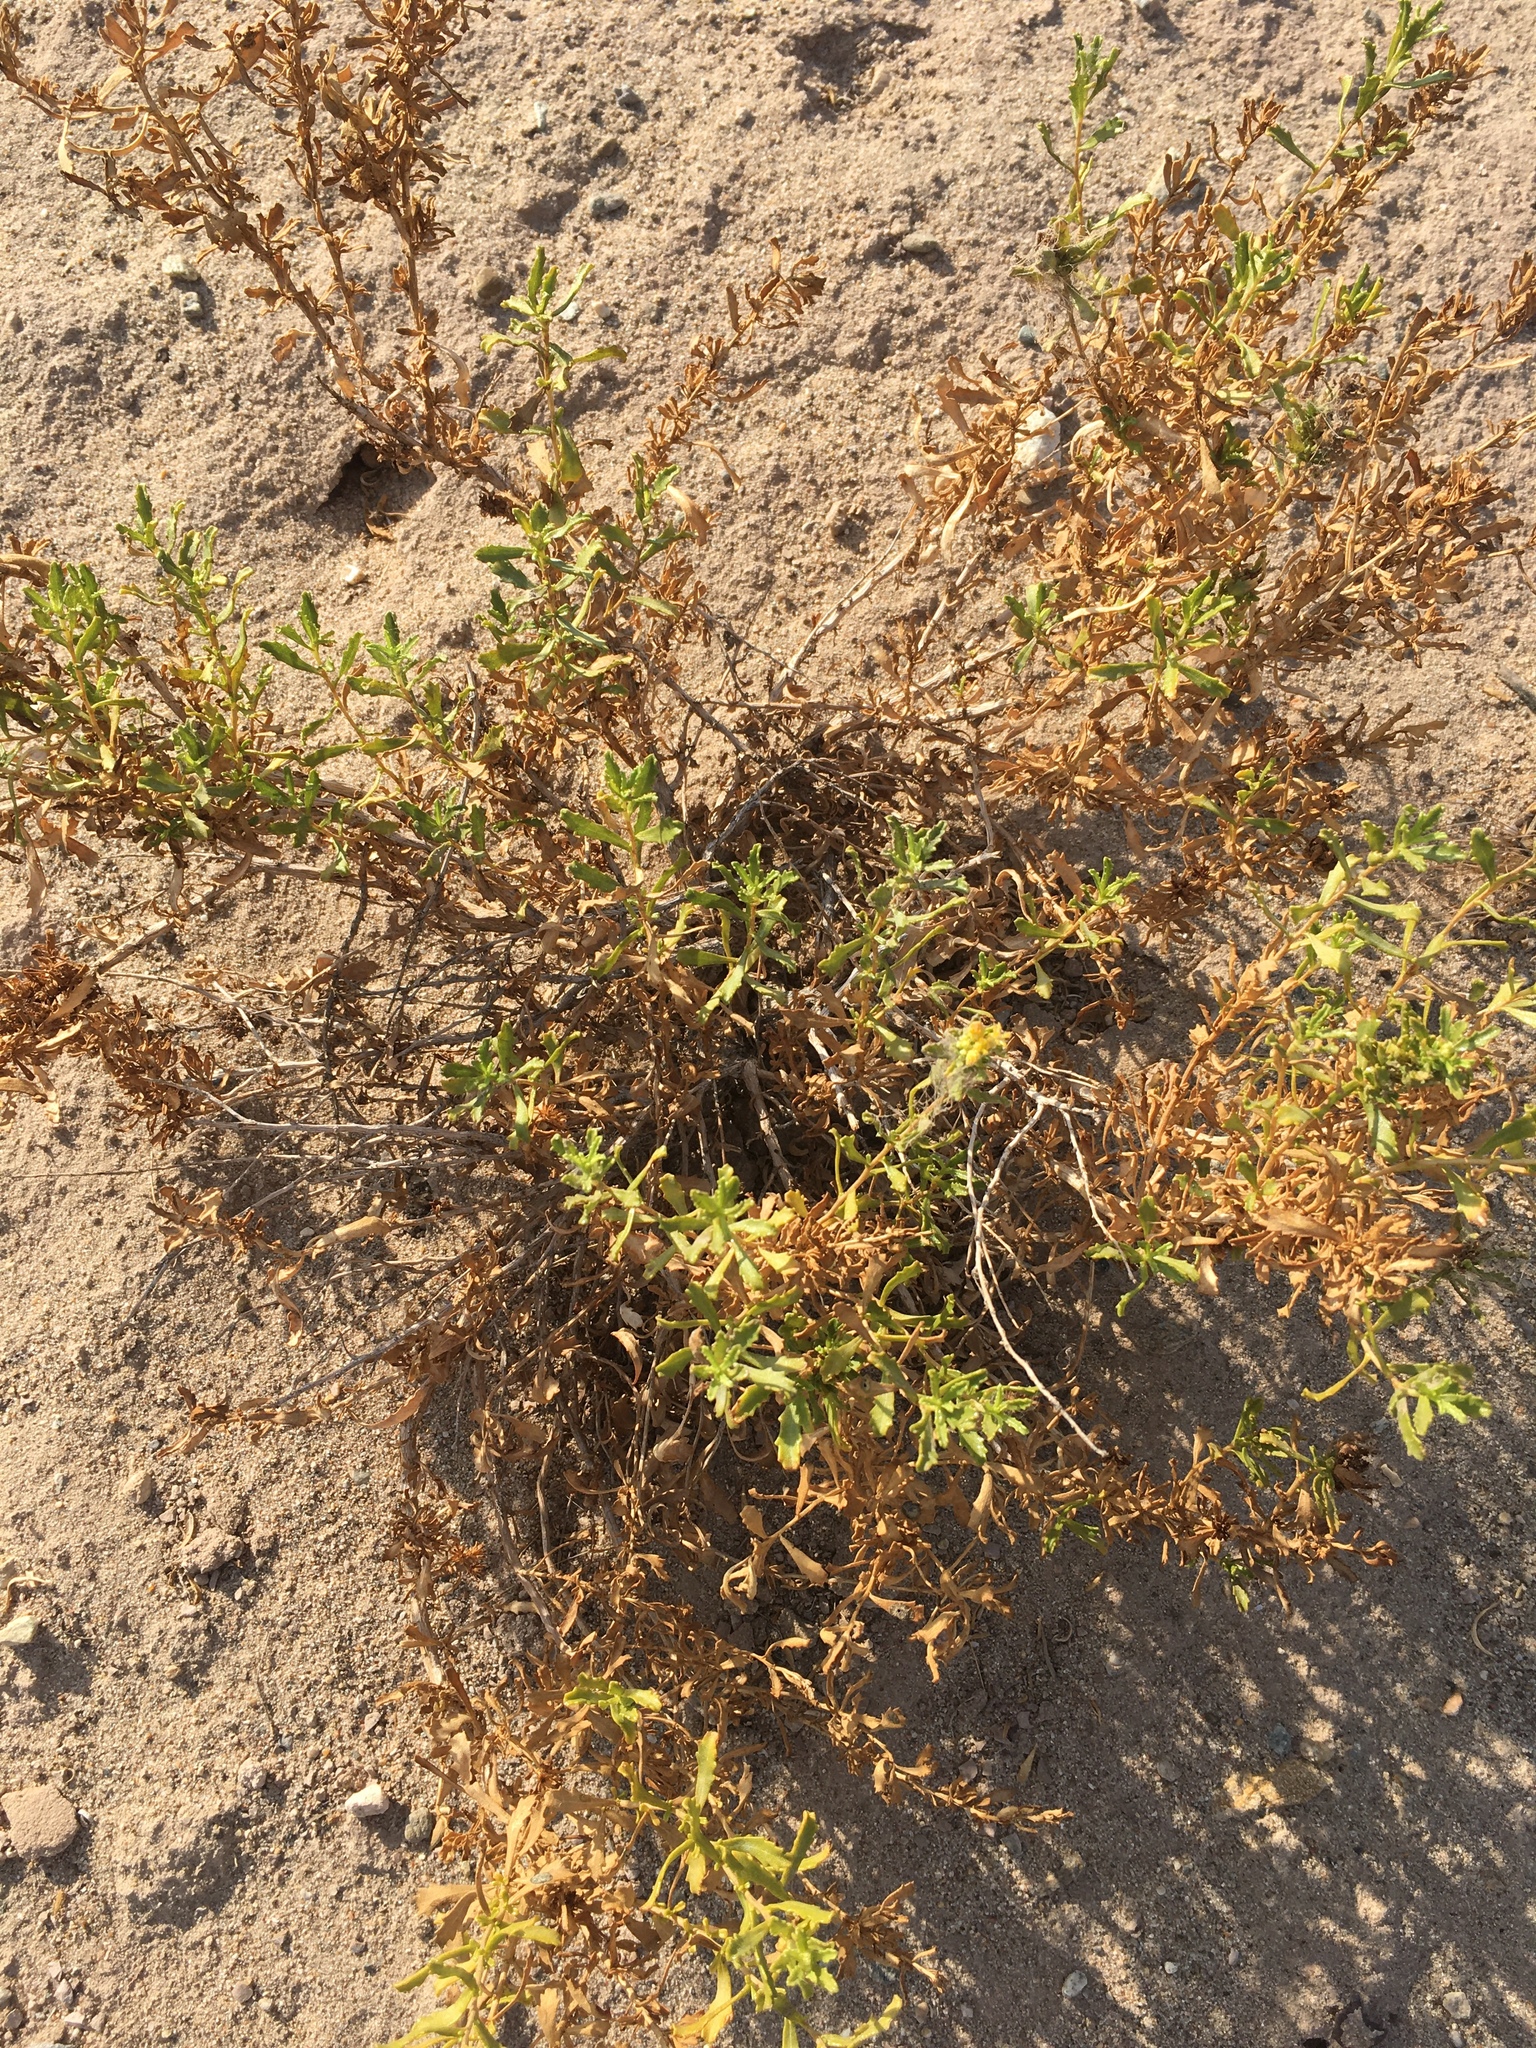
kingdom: Plantae
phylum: Tracheophyta
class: Magnoliopsida
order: Asterales
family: Asteraceae
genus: Isocoma
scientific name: Isocoma acradenia
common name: Alkali jimmyweed
